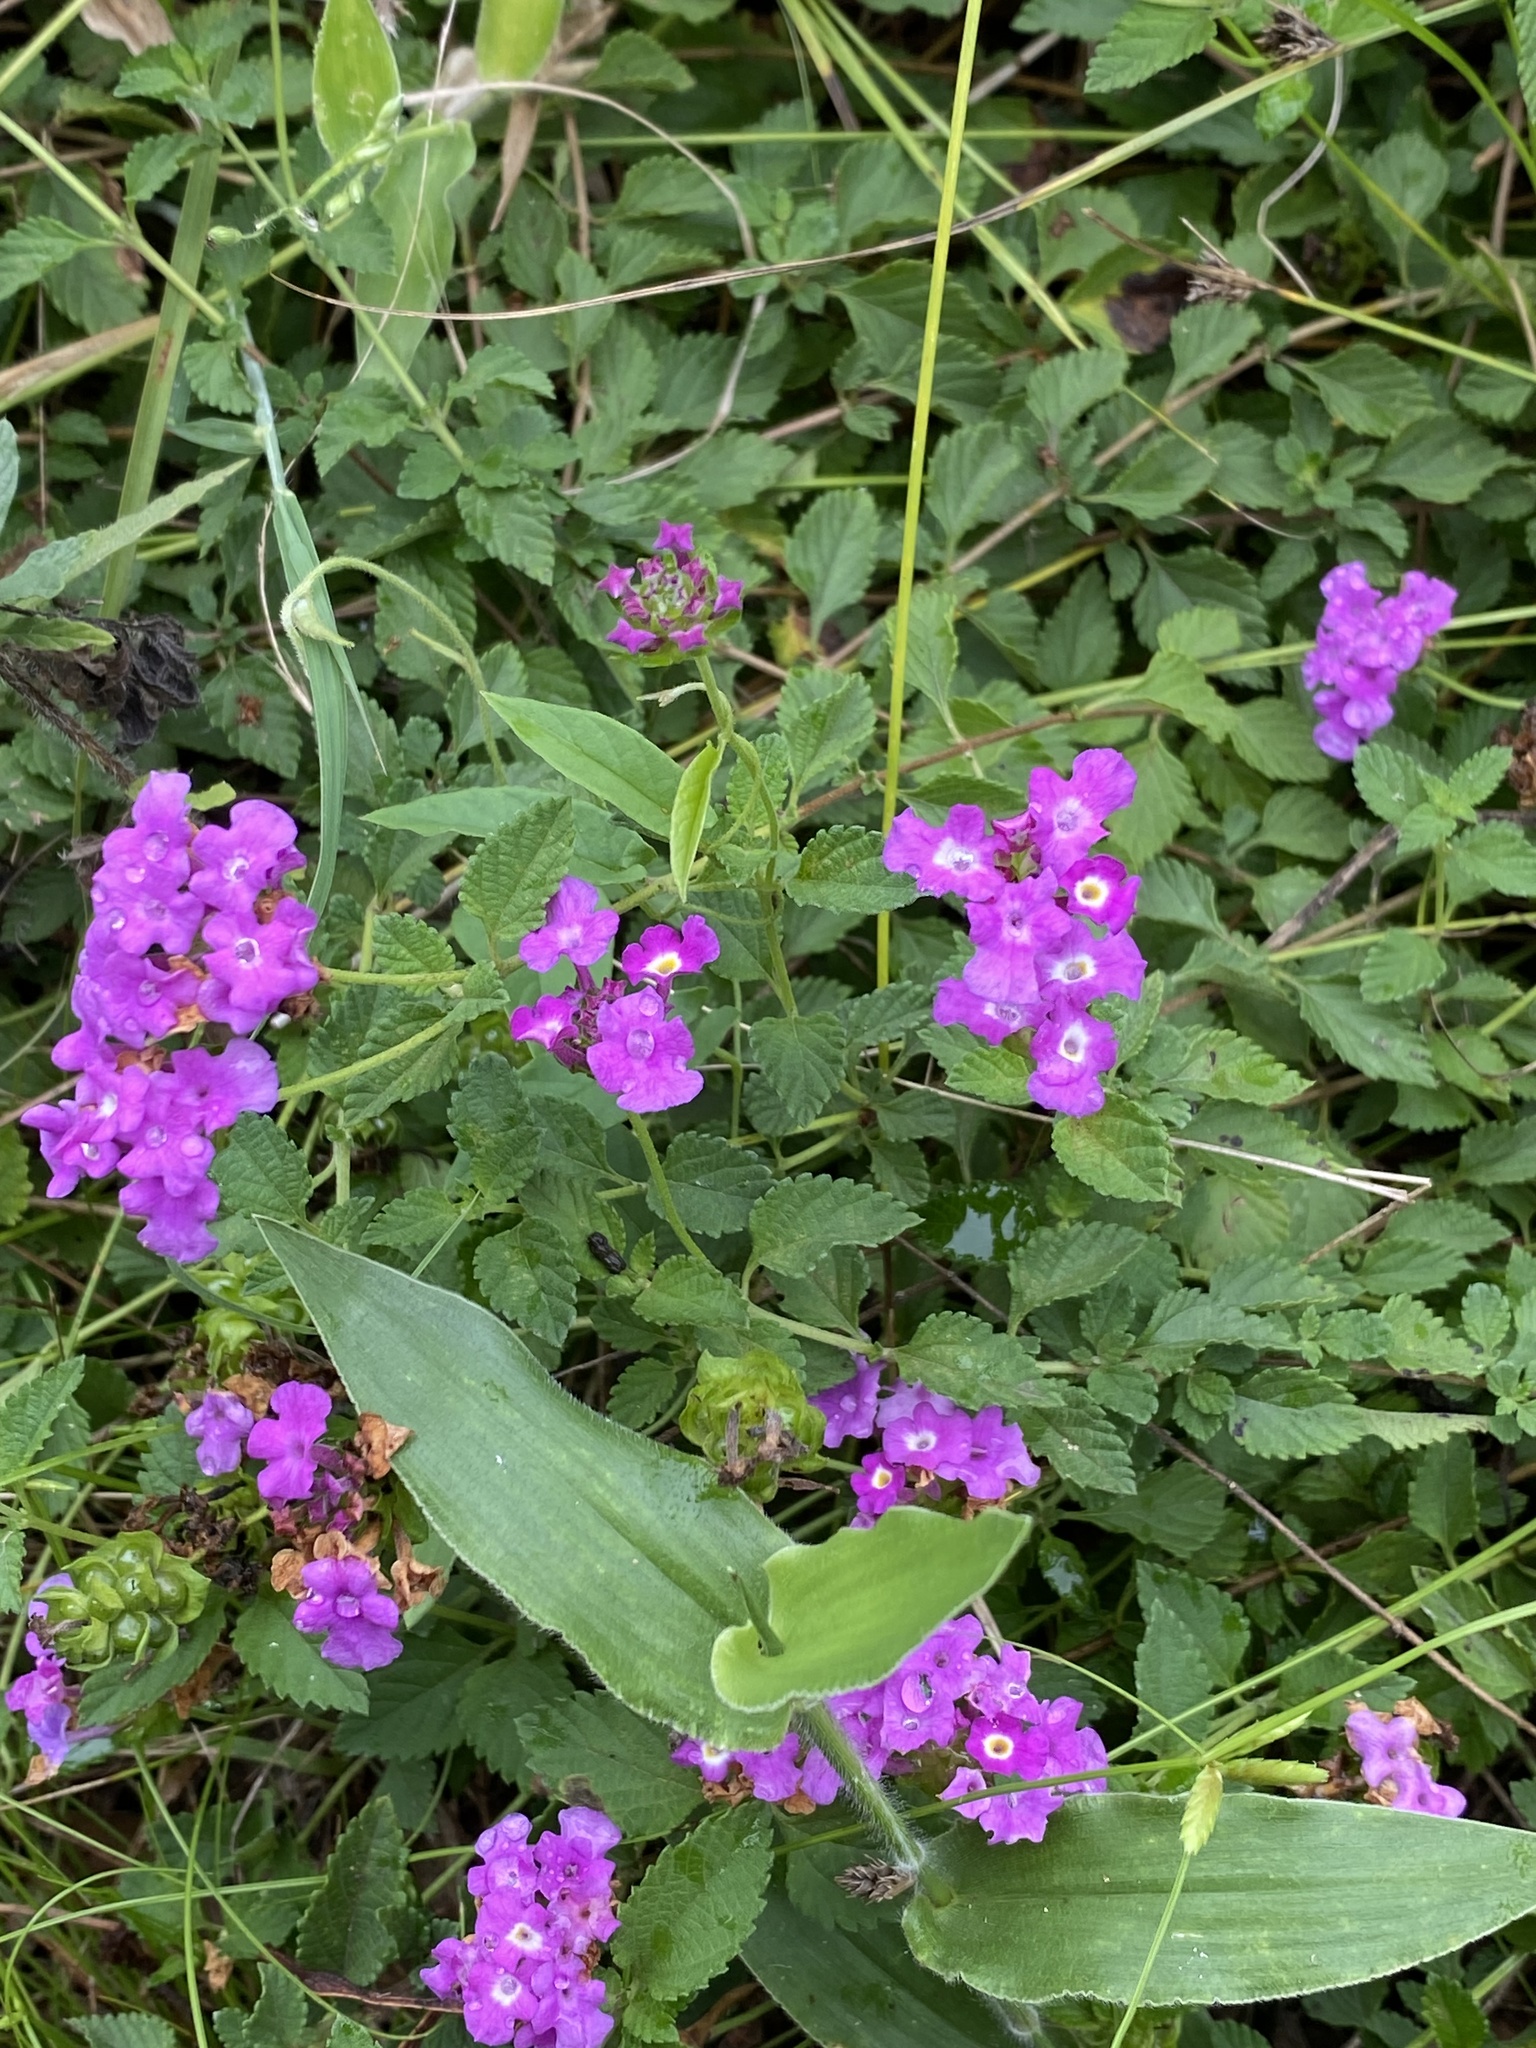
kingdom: Plantae
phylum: Tracheophyta
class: Magnoliopsida
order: Lamiales
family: Verbenaceae
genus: Lantana
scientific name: Lantana montevidensis
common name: Trailing shrubverbena
